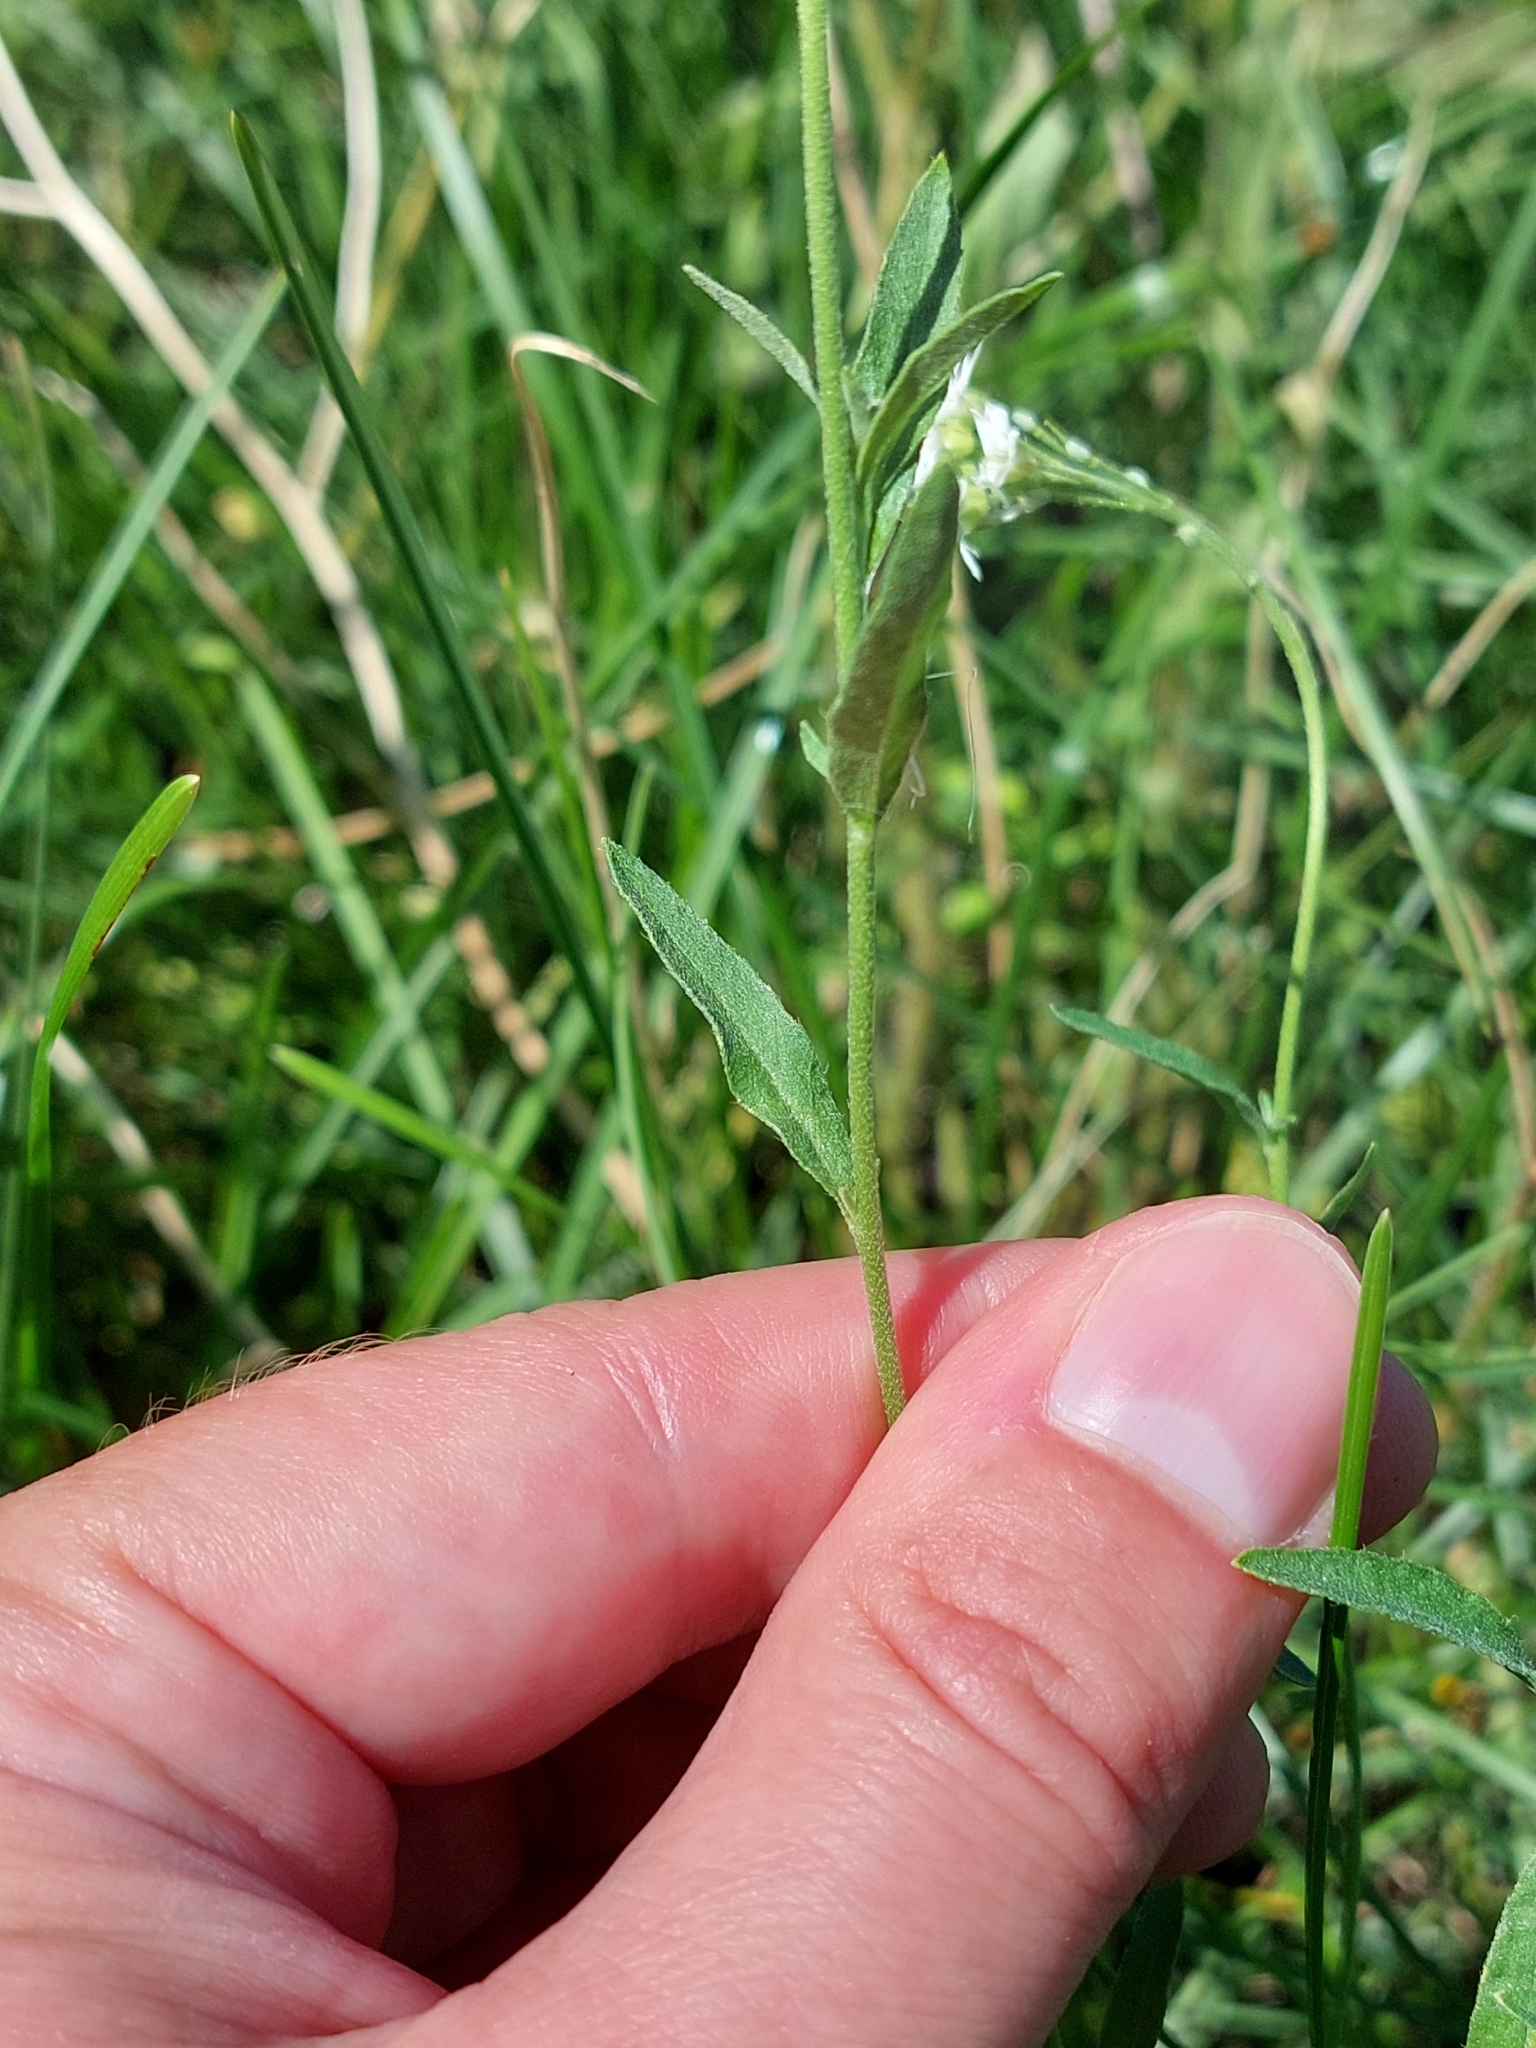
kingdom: Plantae
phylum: Tracheophyta
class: Magnoliopsida
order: Brassicales
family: Brassicaceae
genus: Berteroa
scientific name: Berteroa incana
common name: Hoary alison
